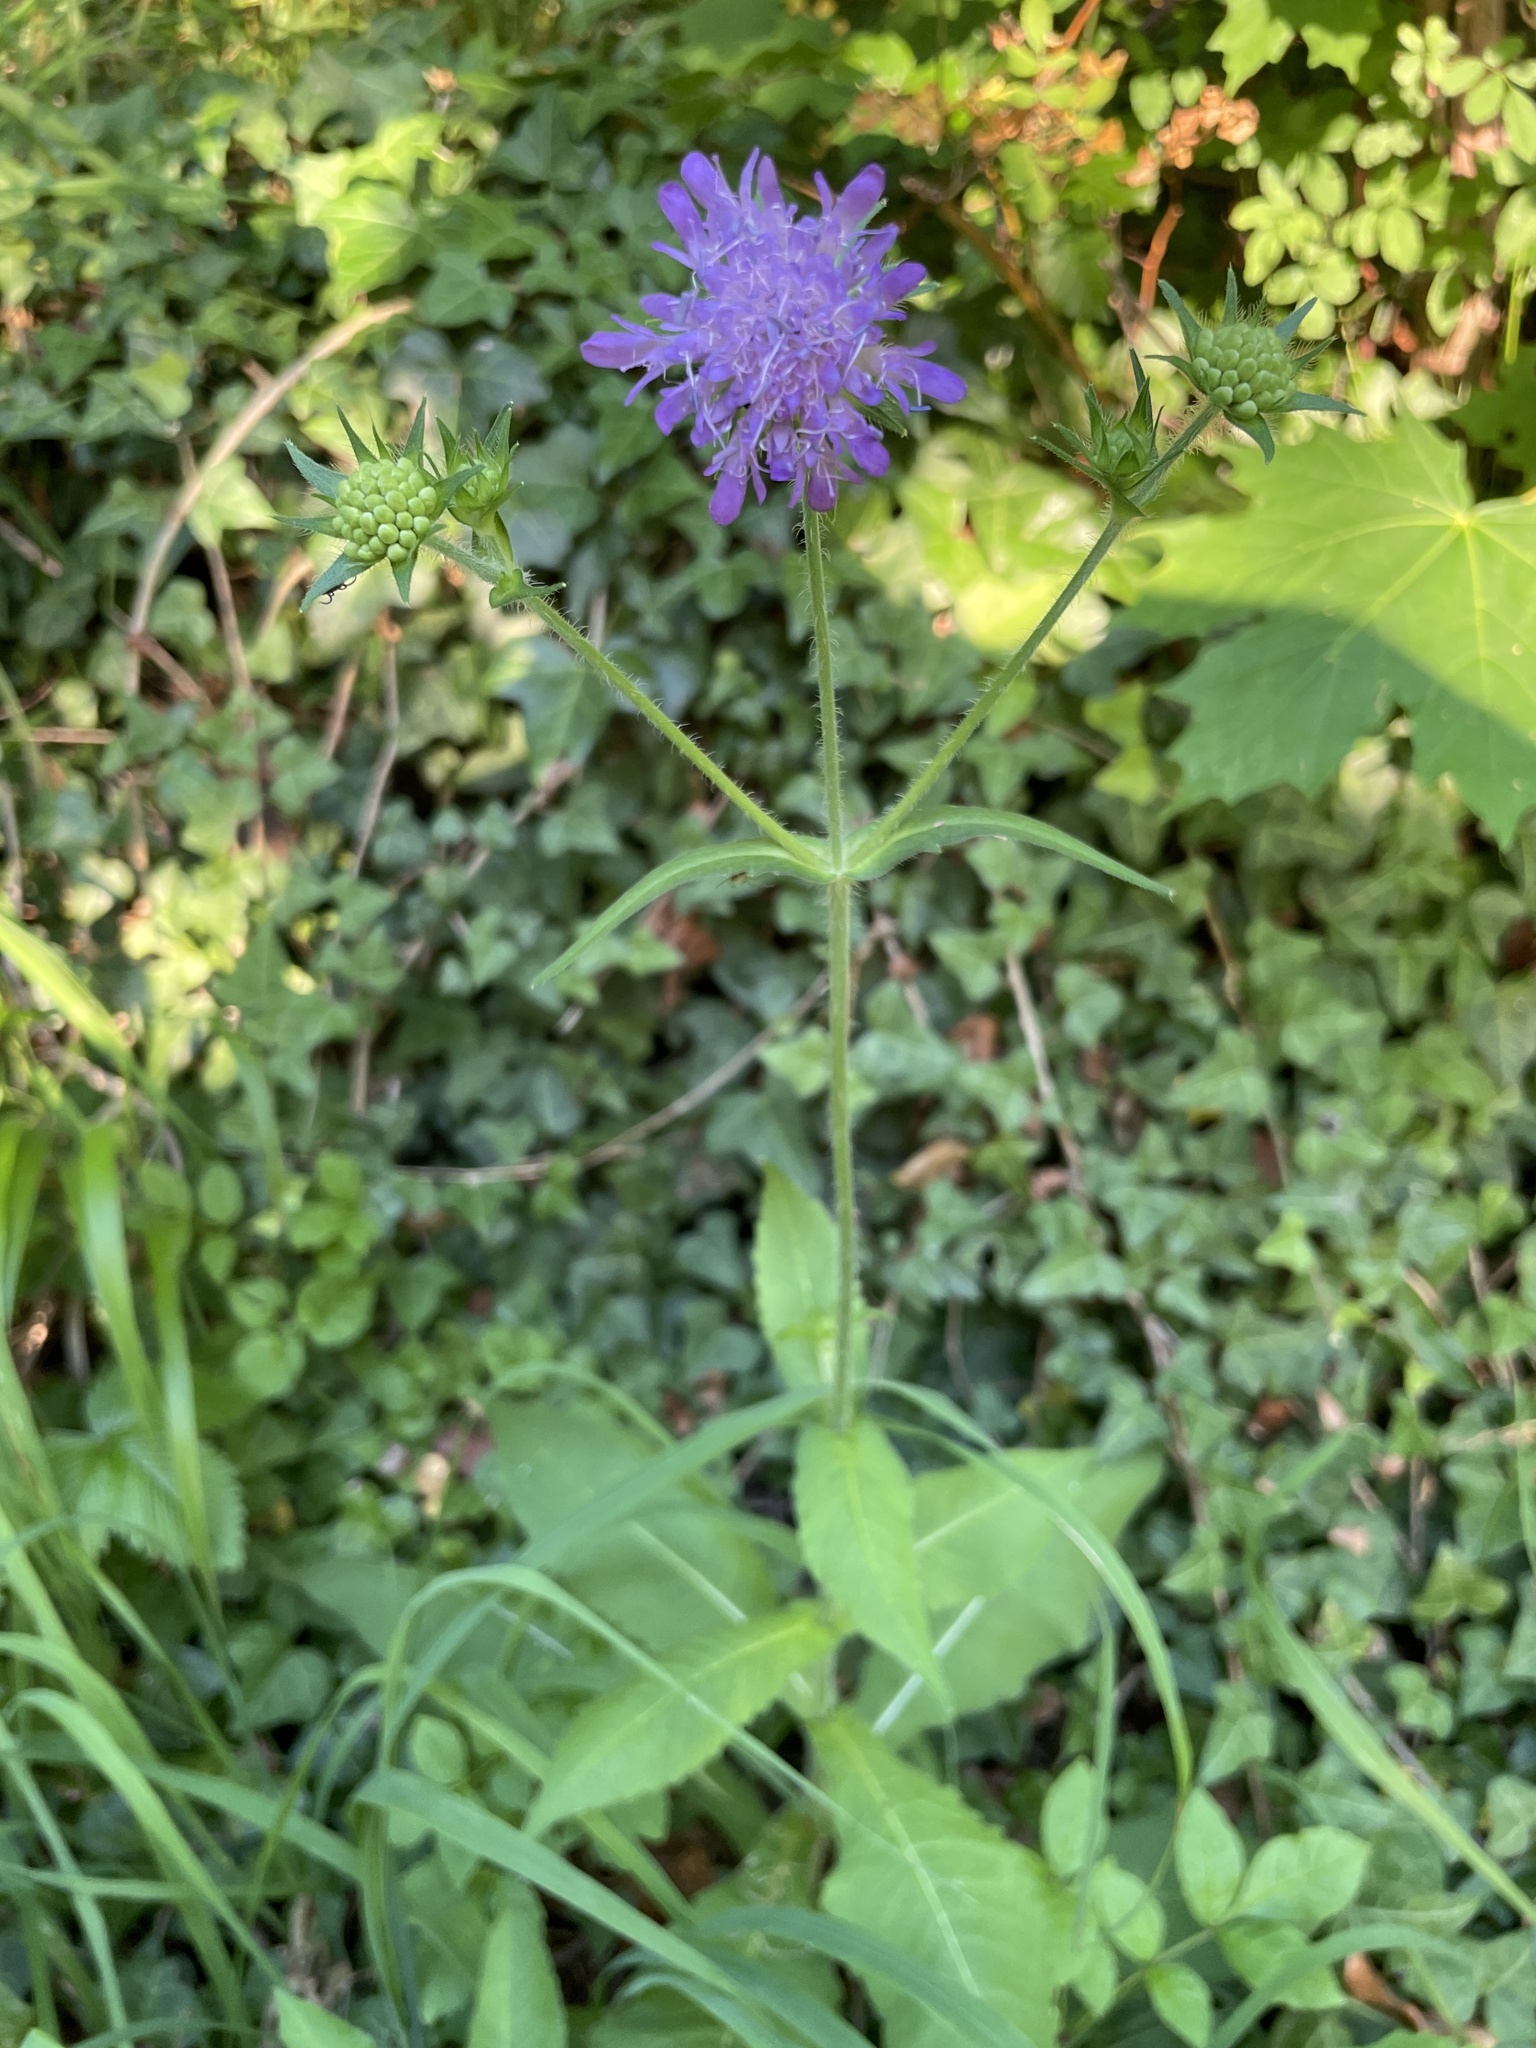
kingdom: Plantae
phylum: Tracheophyta
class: Magnoliopsida
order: Dipsacales
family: Caprifoliaceae
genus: Knautia
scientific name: Knautia dipsacifolia
